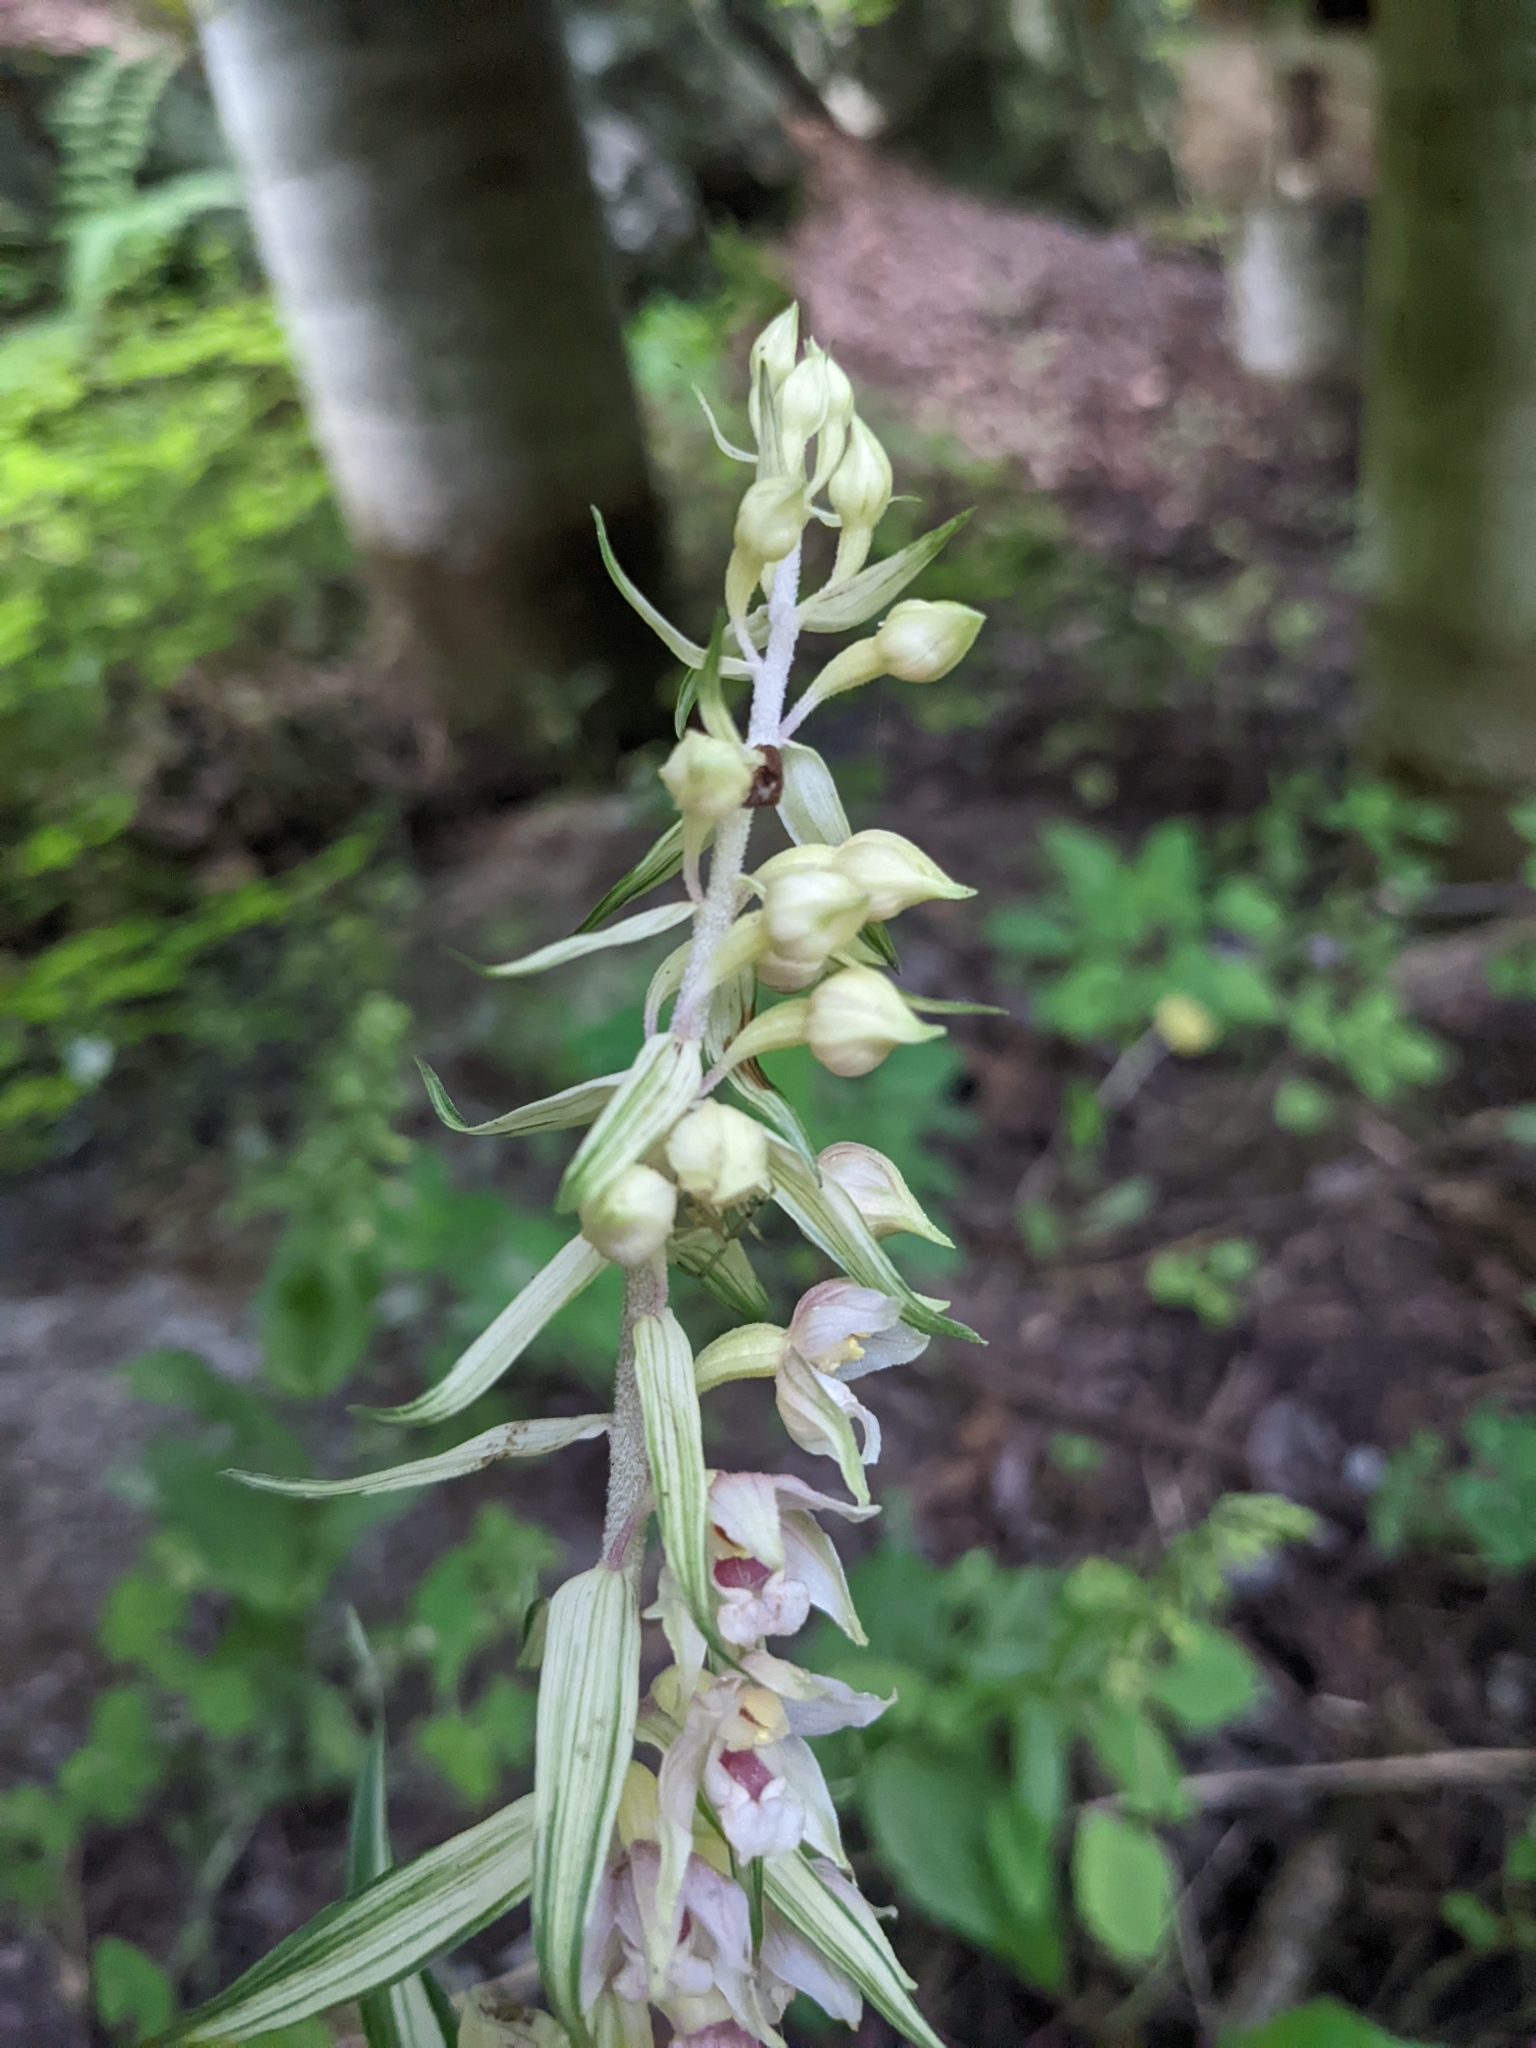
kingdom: Plantae
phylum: Tracheophyta
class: Liliopsida
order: Asparagales
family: Orchidaceae
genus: Epipactis
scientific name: Epipactis helleborine
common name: Broad-leaved helleborine
